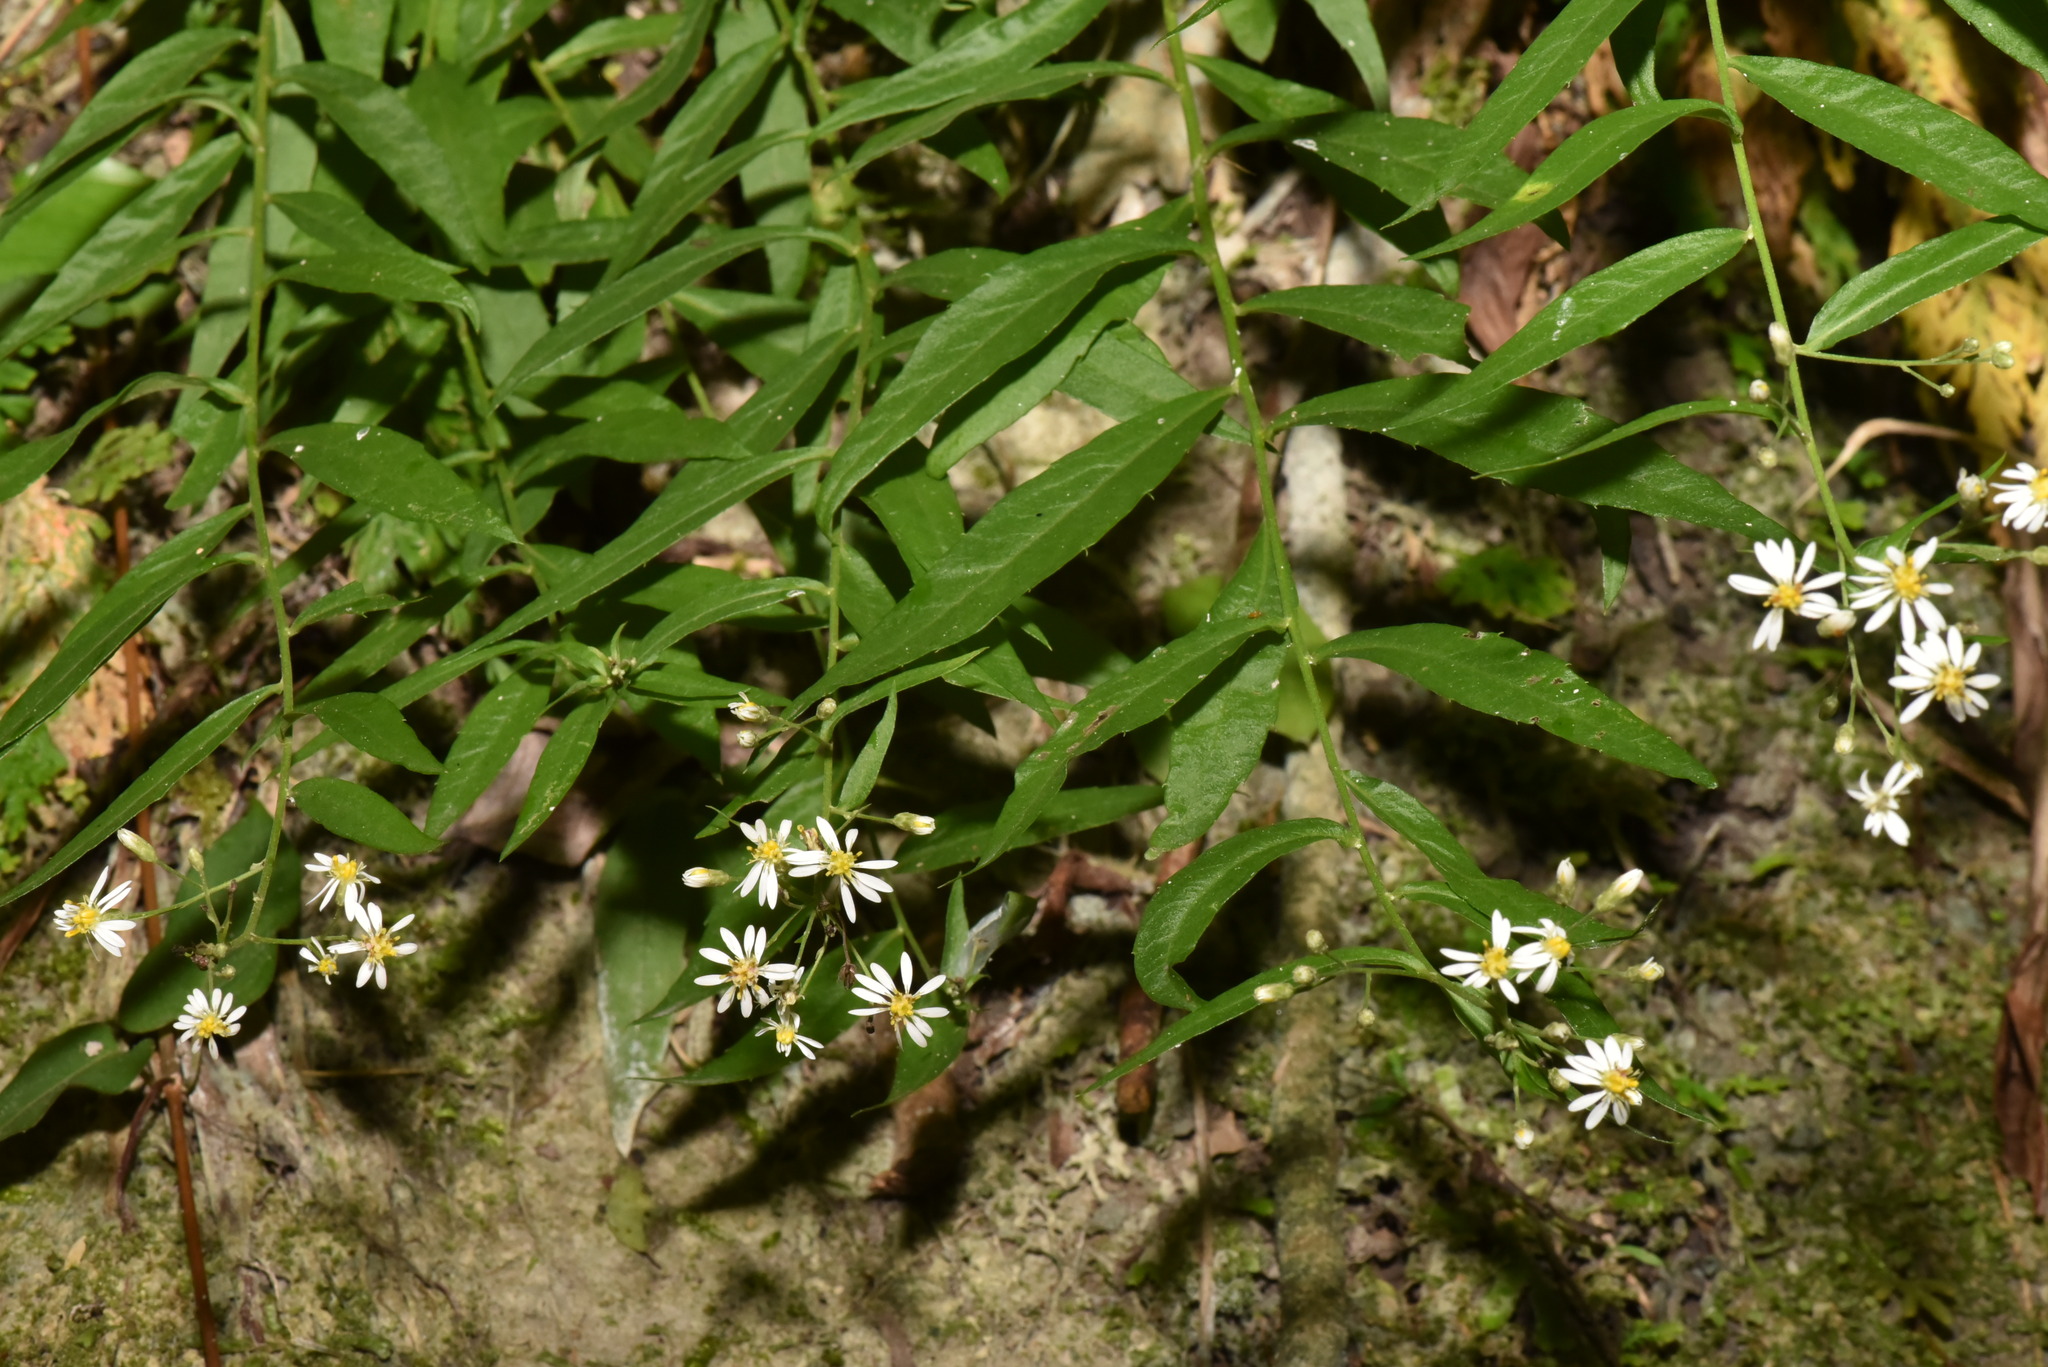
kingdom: Plantae
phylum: Tracheophyta
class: Magnoliopsida
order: Asterales
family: Asteraceae
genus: Aster
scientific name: Aster taiwanensis
